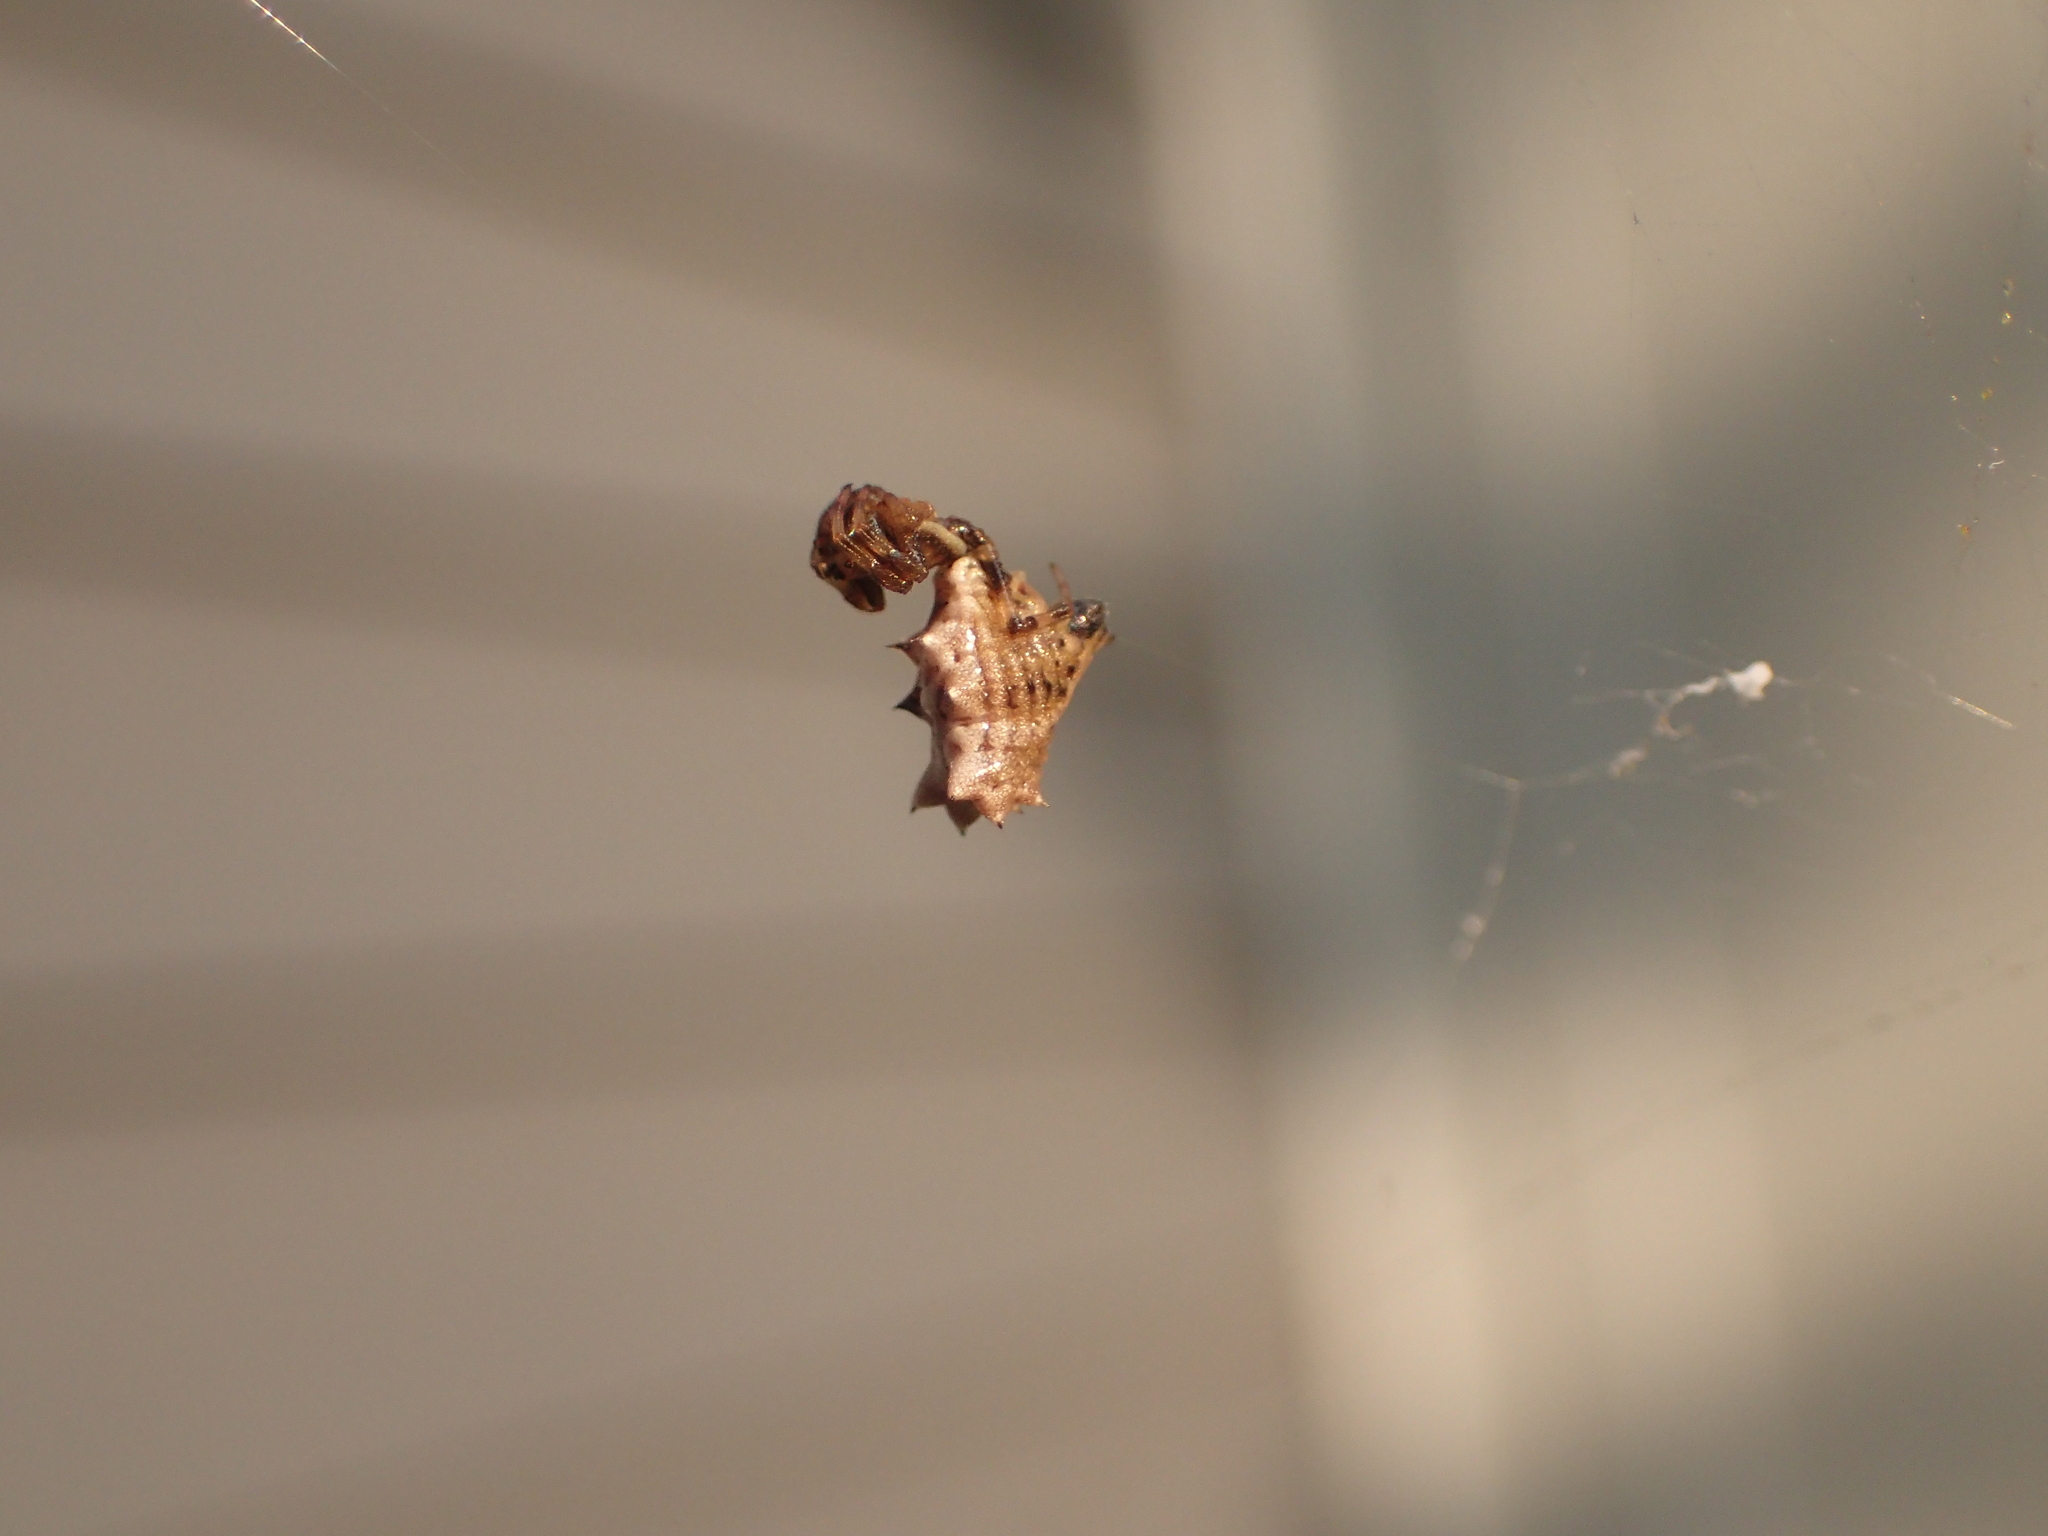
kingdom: Animalia
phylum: Arthropoda
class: Arachnida
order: Araneae
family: Araneidae
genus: Micrathena
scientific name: Micrathena gracilis
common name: Orb weavers
